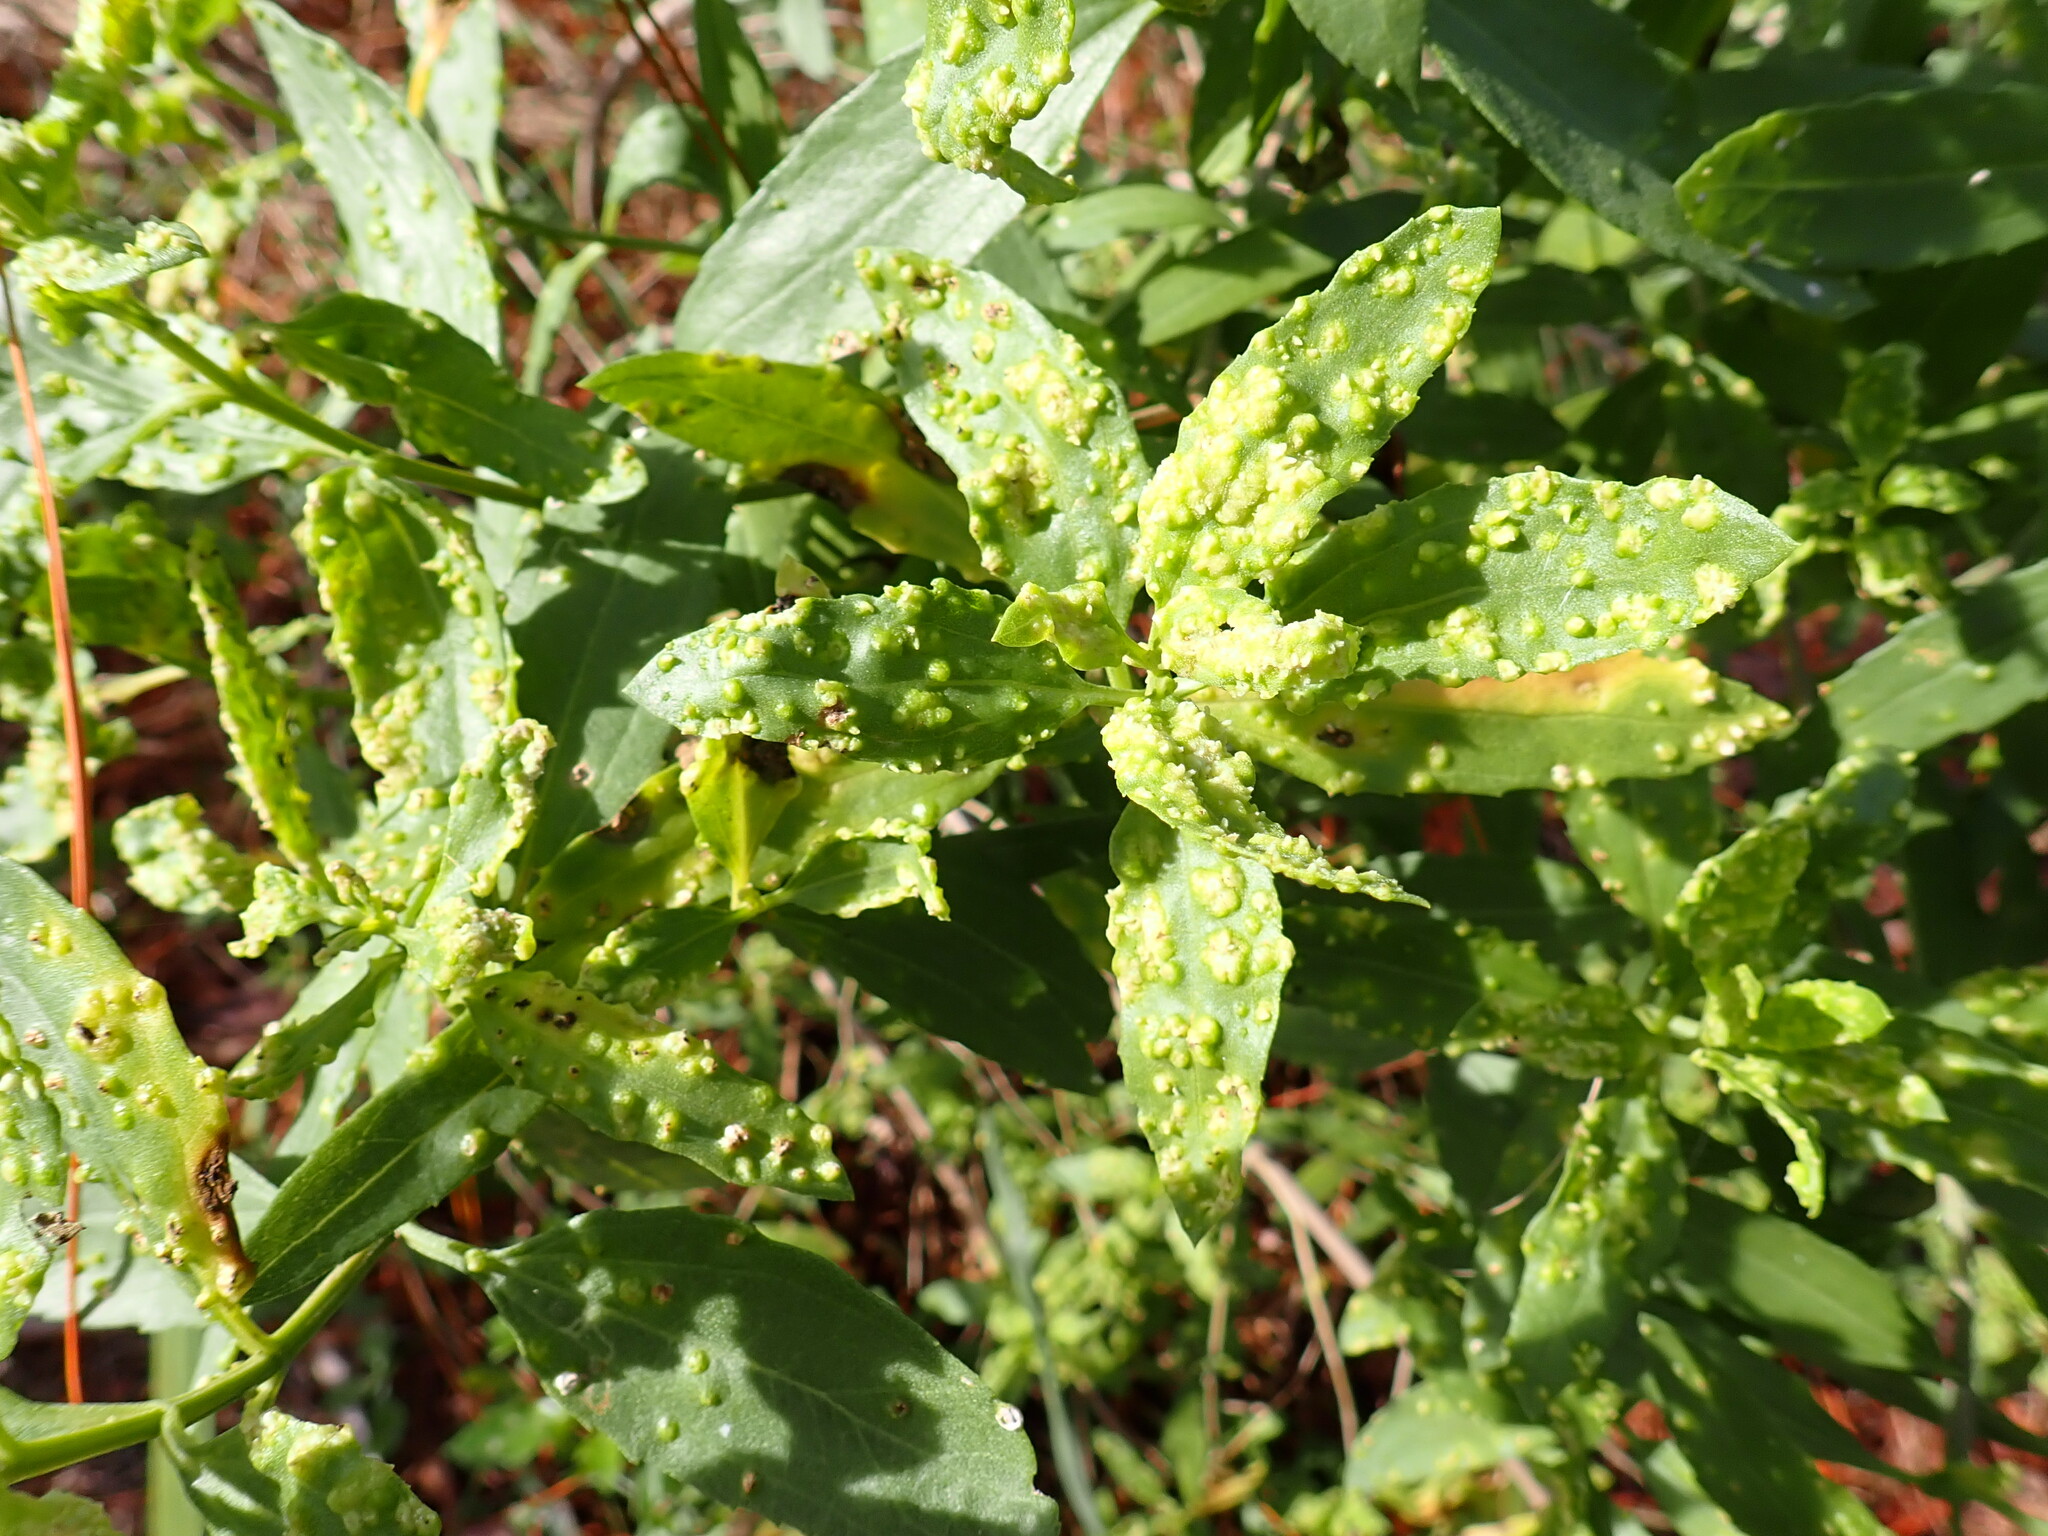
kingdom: Plantae
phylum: Tracheophyta
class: Magnoliopsida
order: Asterales
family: Asteraceae
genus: Iva
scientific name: Iva frutescens
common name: Big-leaved marsh-elder
